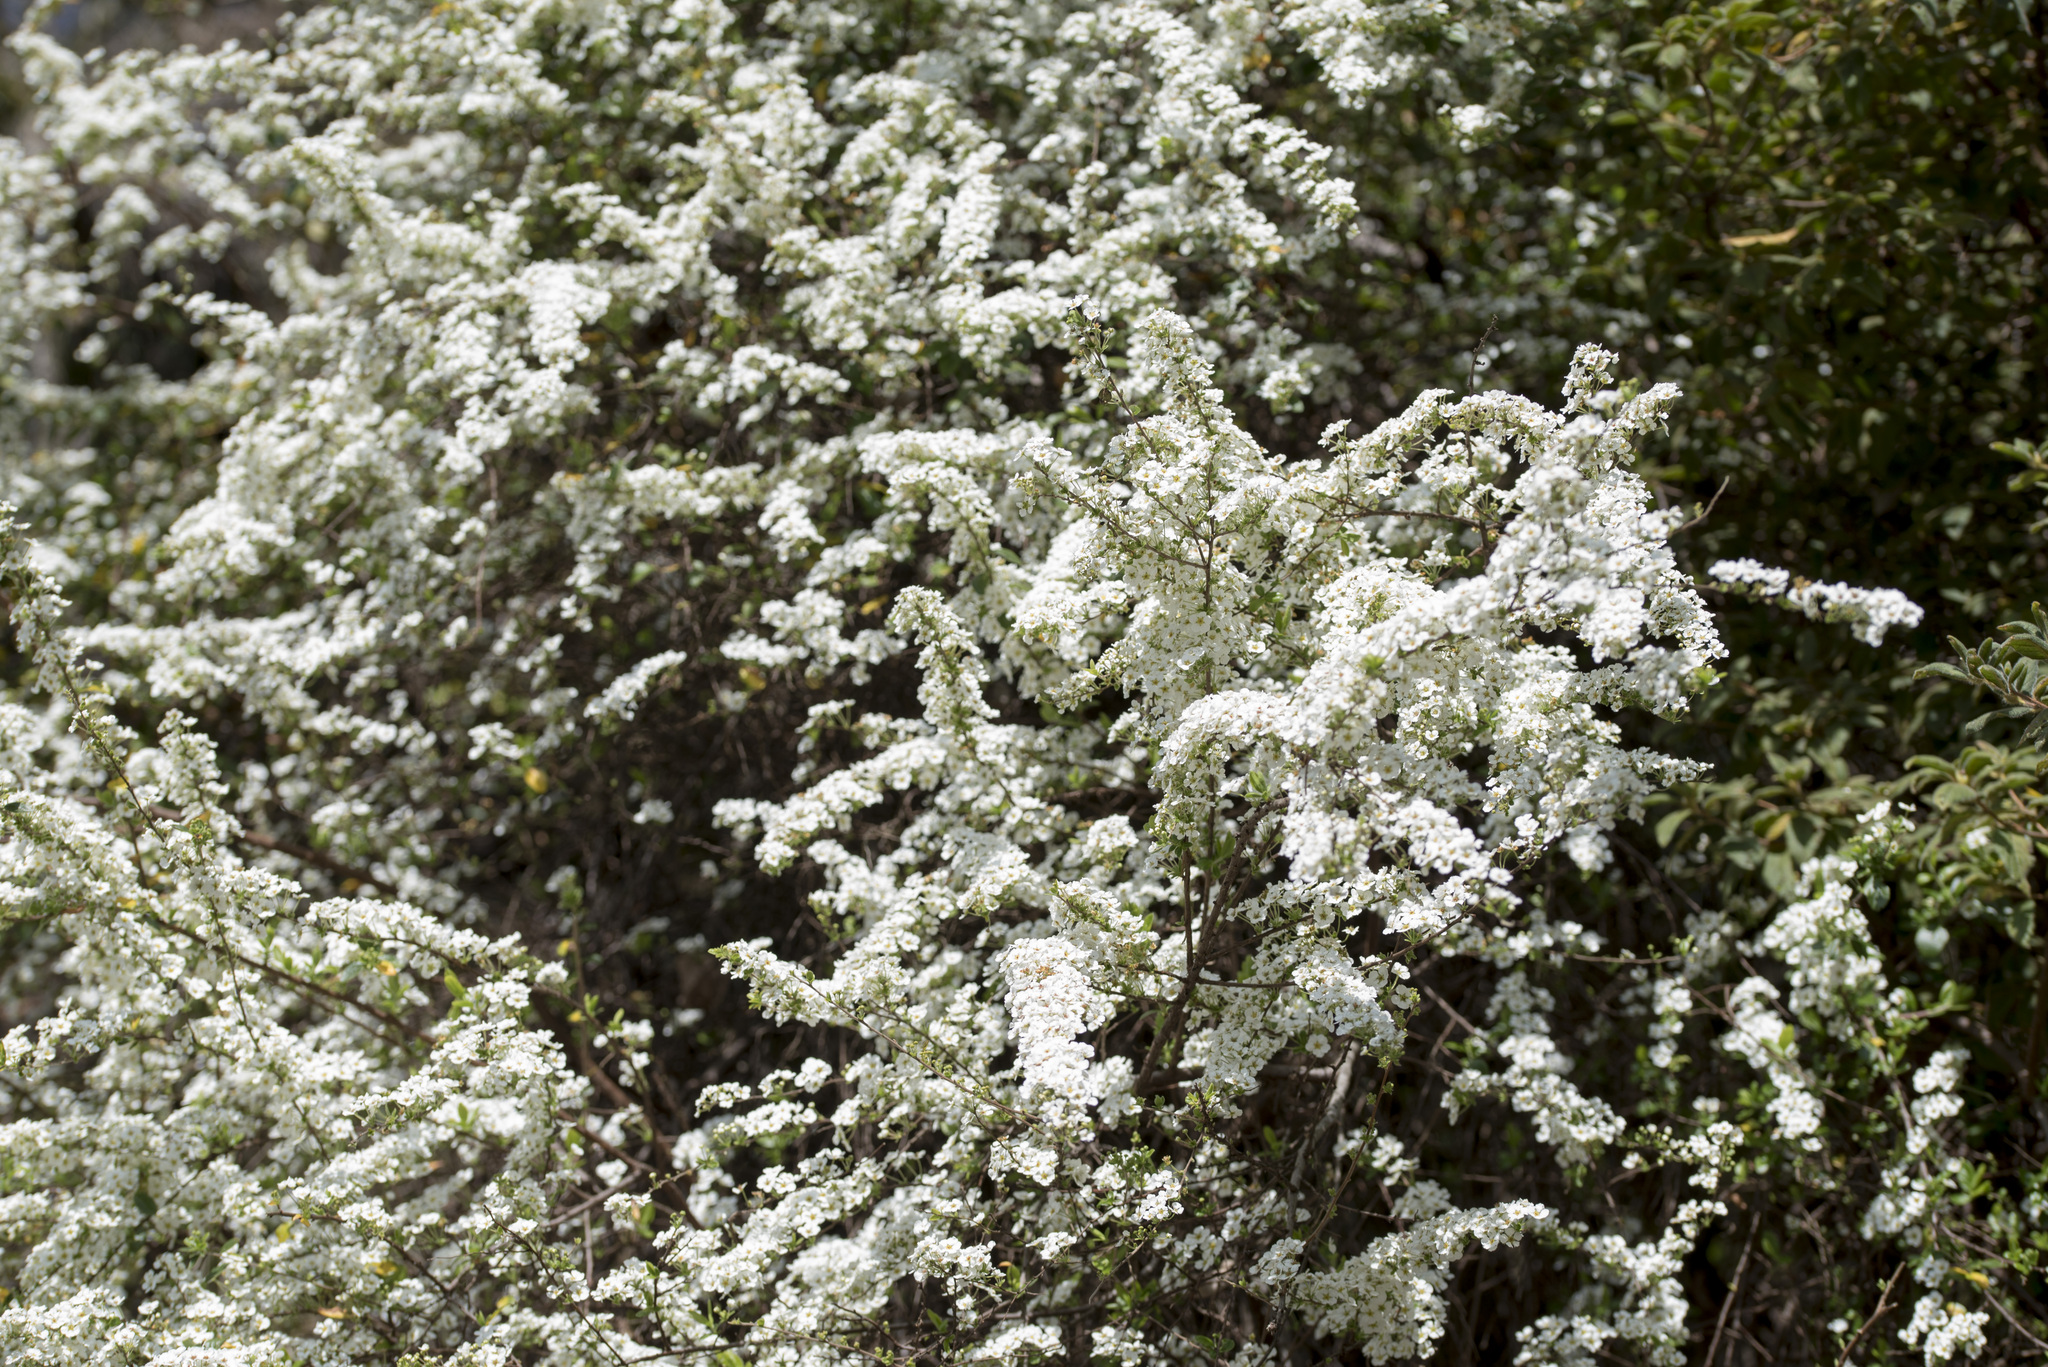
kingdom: Plantae
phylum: Tracheophyta
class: Magnoliopsida
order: Rosales
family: Rosaceae
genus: Spiraea
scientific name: Spiraea prunifolia
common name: Bridal-wreath spiraea
